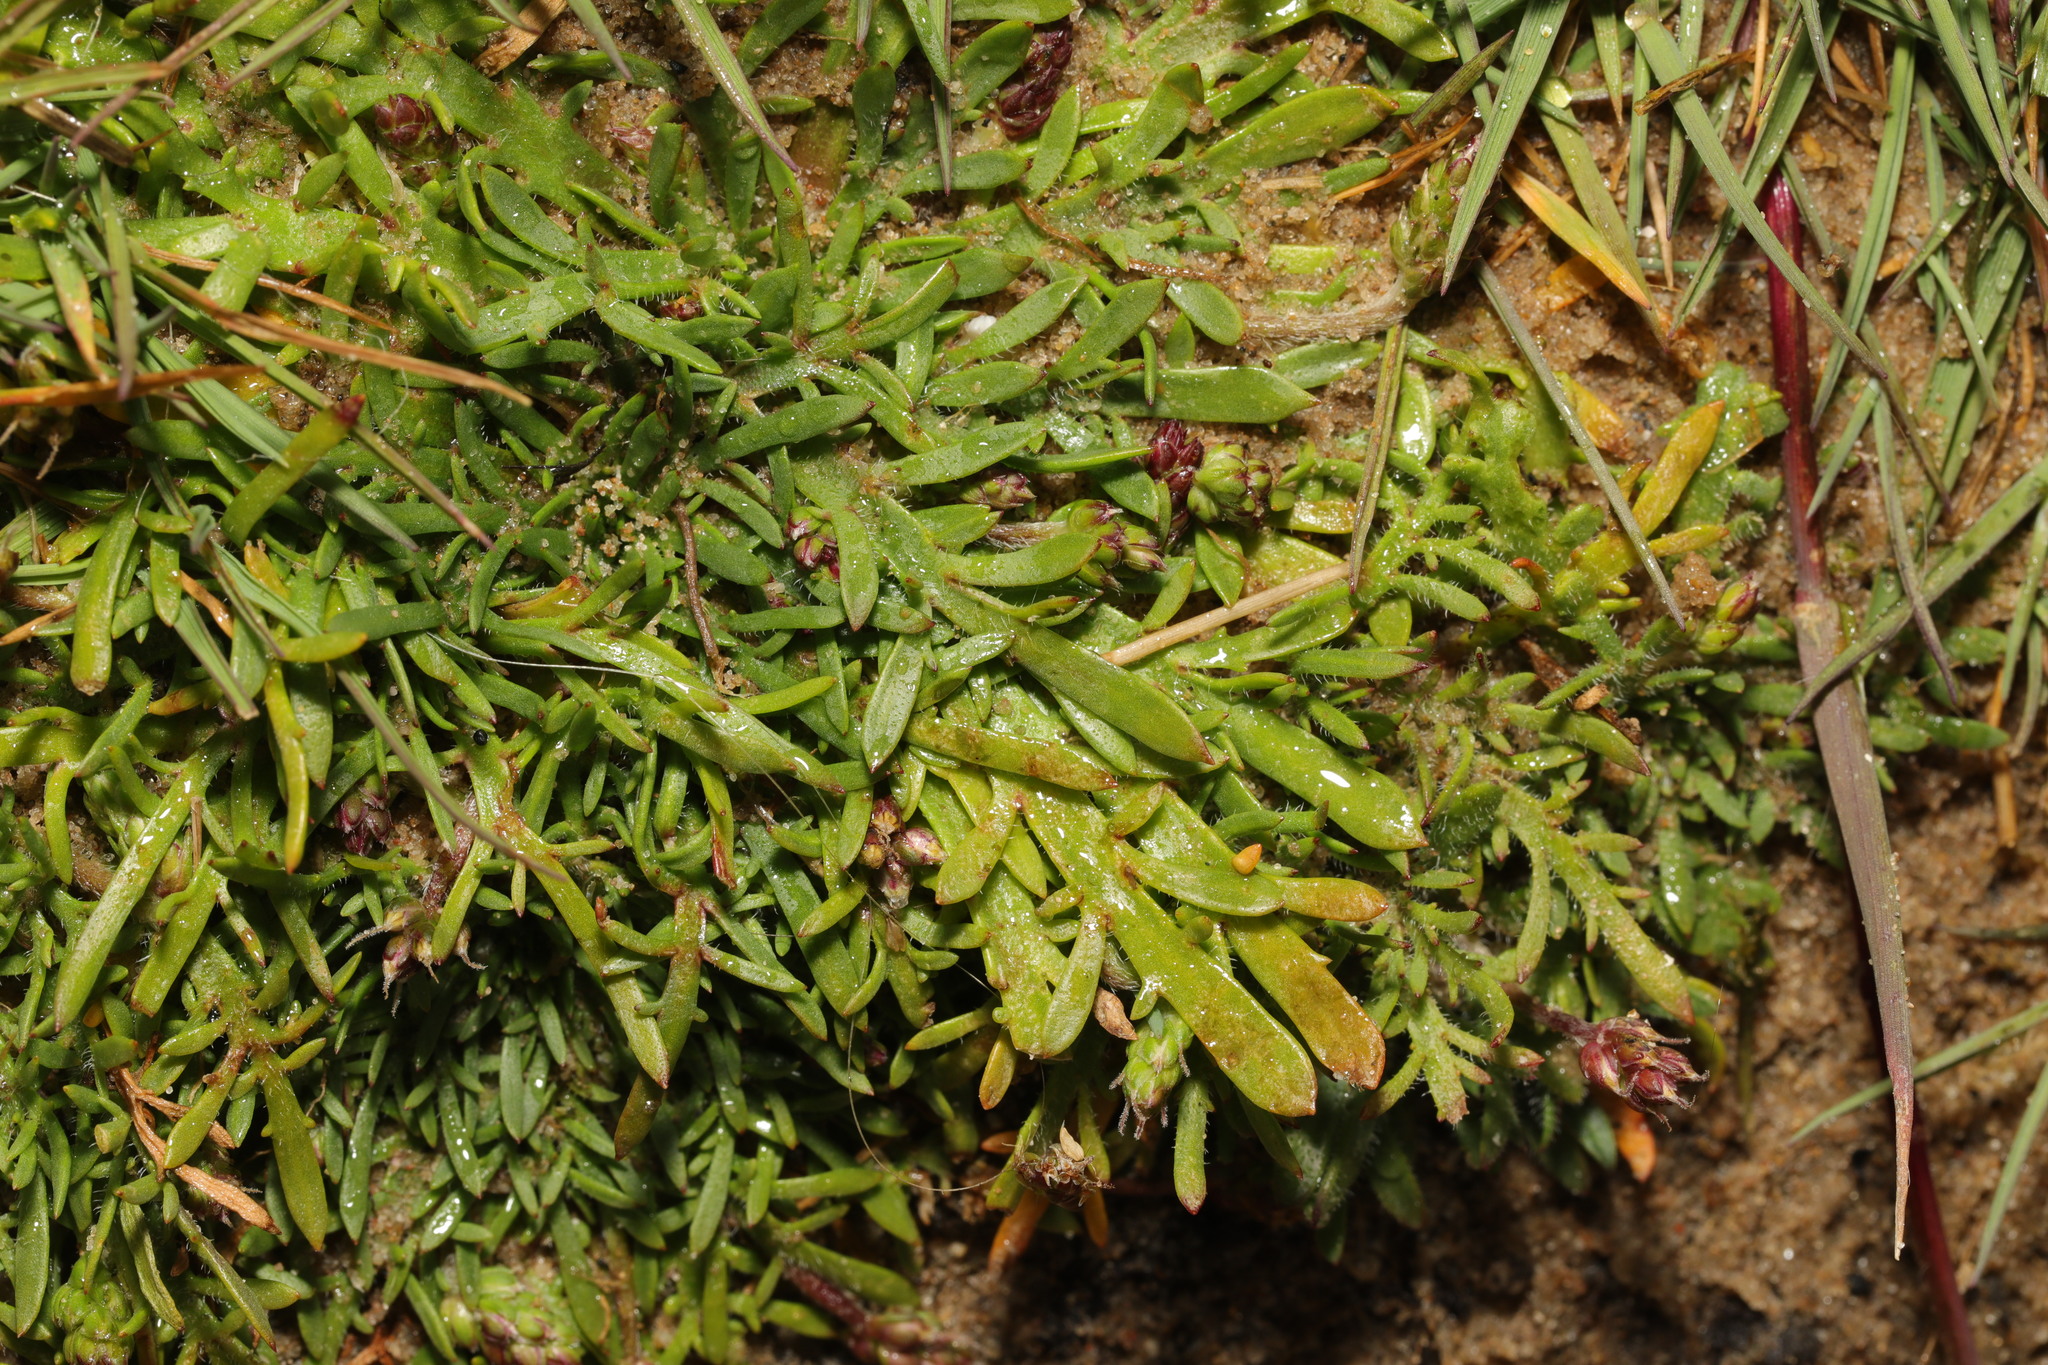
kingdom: Plantae
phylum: Tracheophyta
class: Magnoliopsida
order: Lamiales
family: Plantaginaceae
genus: Plantago
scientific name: Plantago coronopus
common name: Buck's-horn plantain
